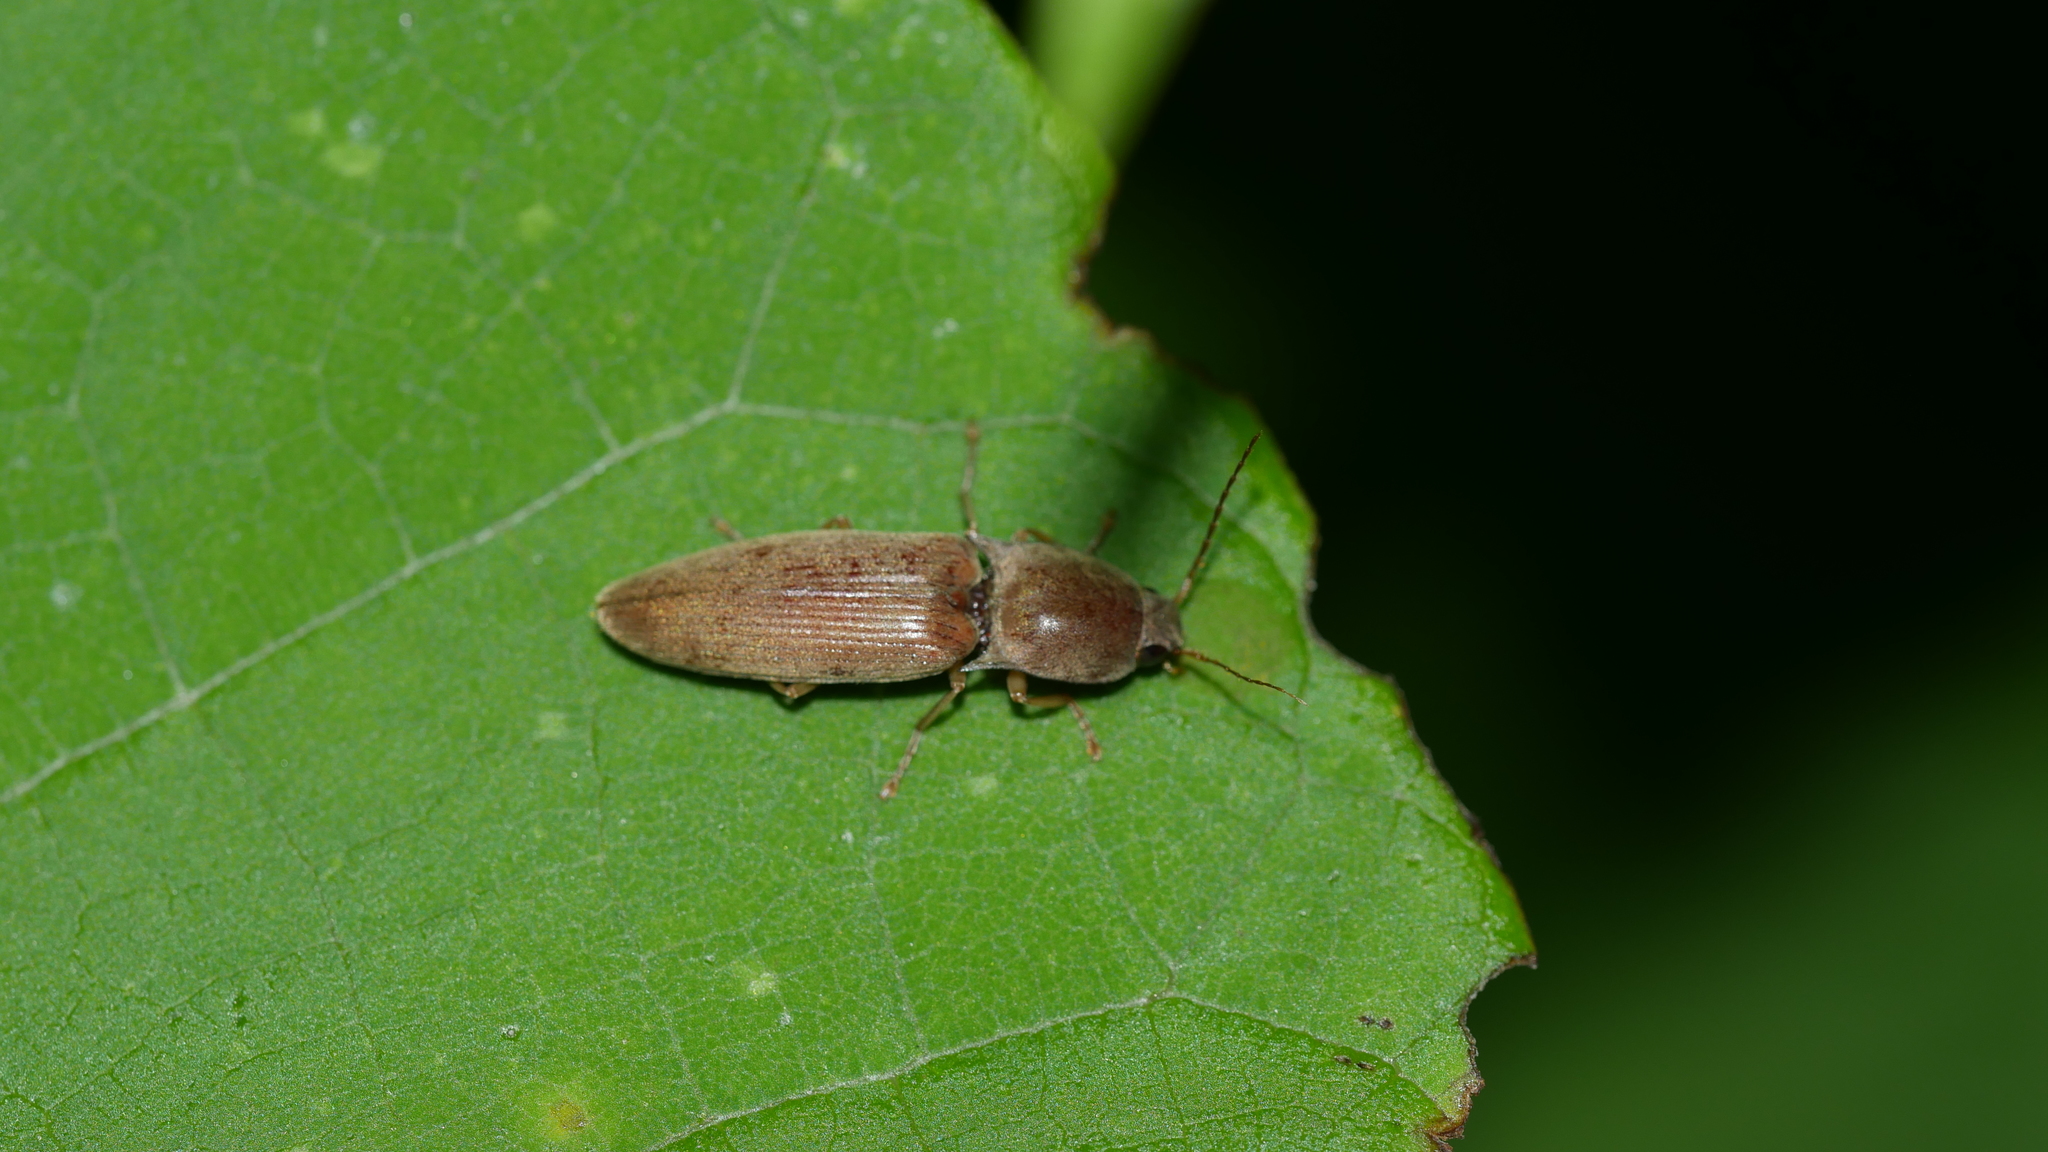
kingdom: Animalia
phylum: Arthropoda
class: Insecta
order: Coleoptera
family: Elateridae
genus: Monocrepidius
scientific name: Monocrepidius lividus
